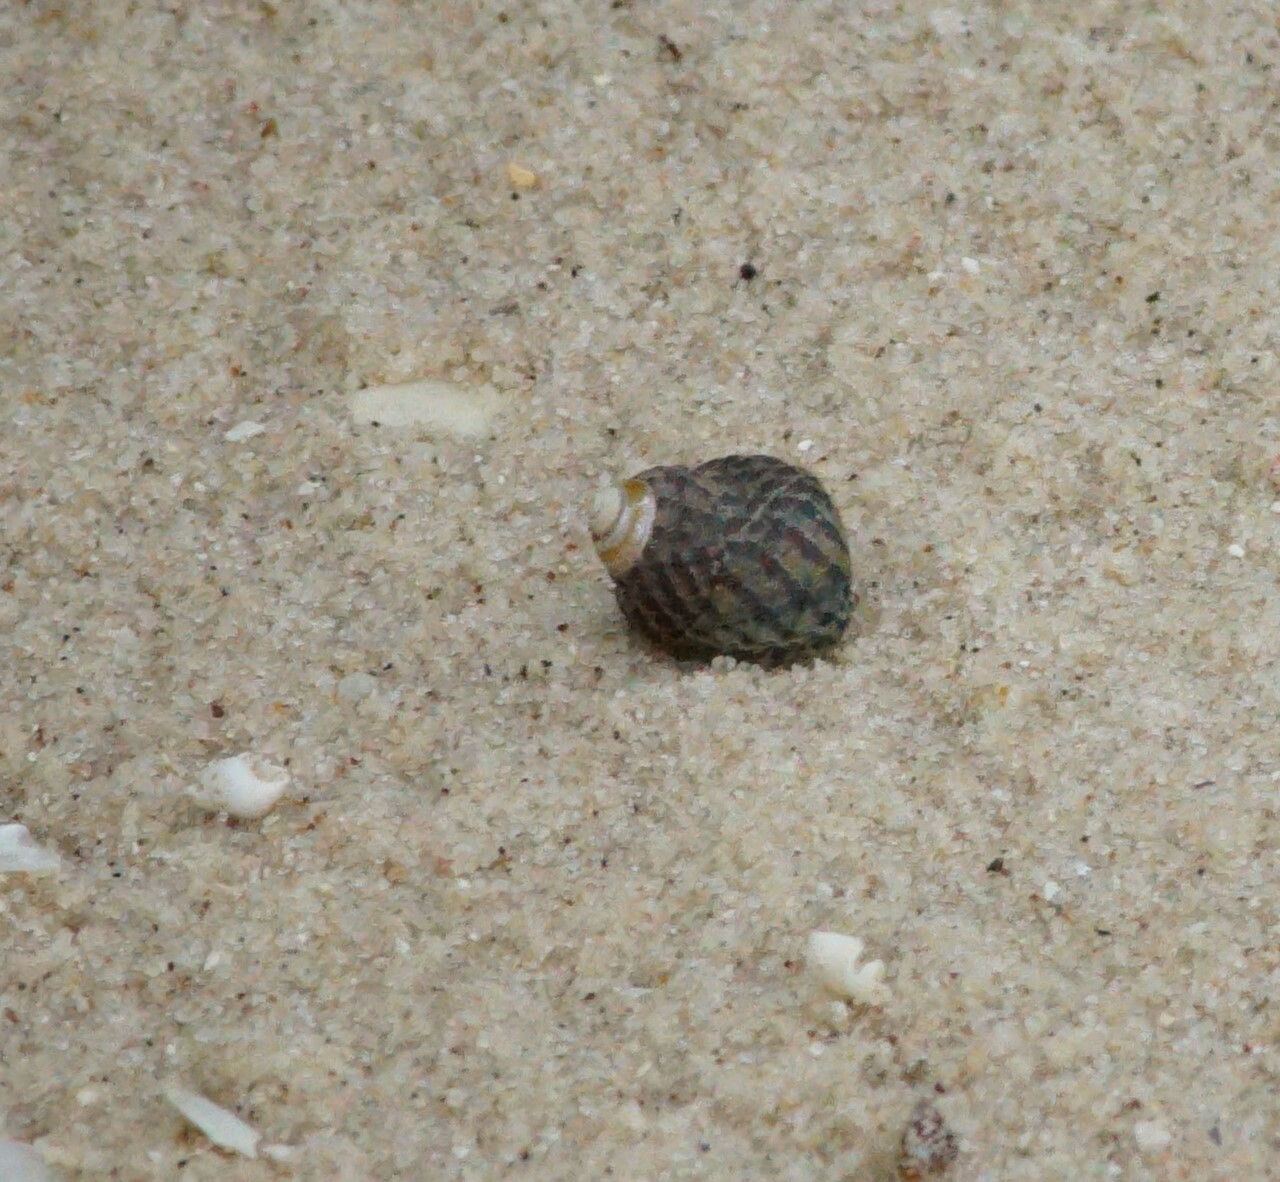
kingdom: Animalia
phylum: Mollusca
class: Gastropoda
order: Trochida
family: Trochidae
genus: Austrocochlea
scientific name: Austrocochlea porcata
